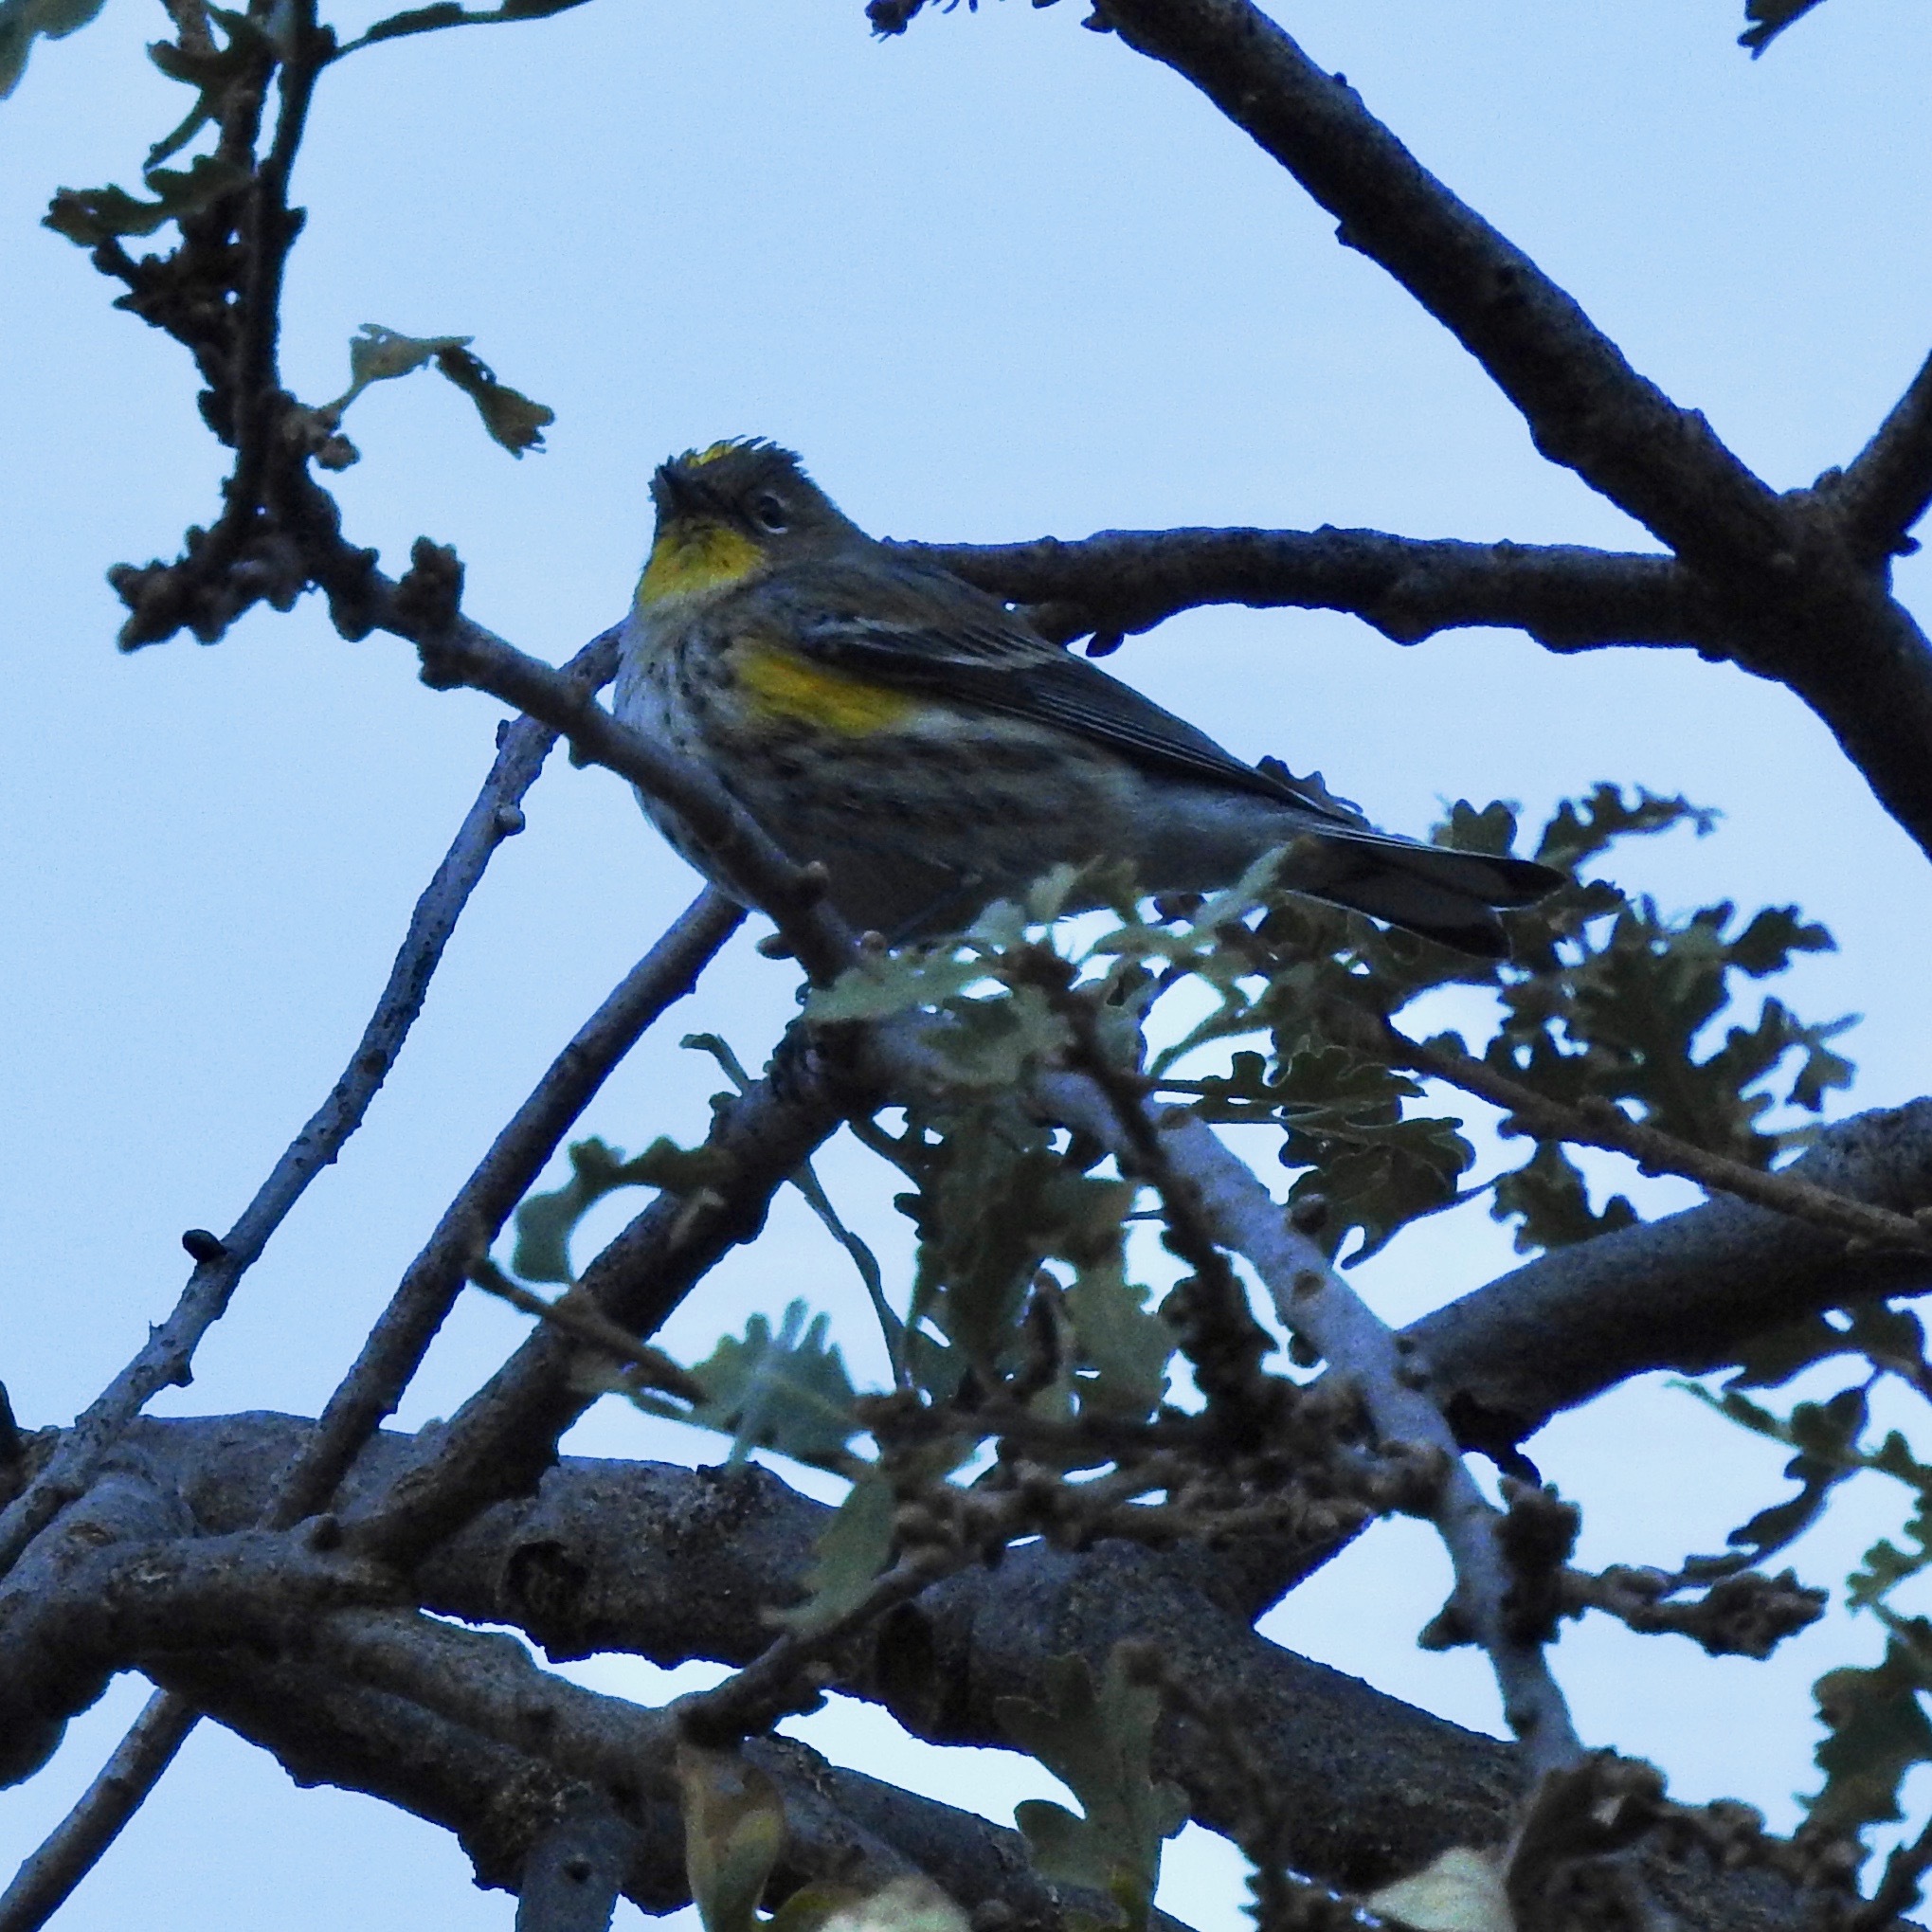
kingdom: Animalia
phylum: Chordata
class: Aves
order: Passeriformes
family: Parulidae
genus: Setophaga
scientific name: Setophaga coronata
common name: Myrtle warbler
